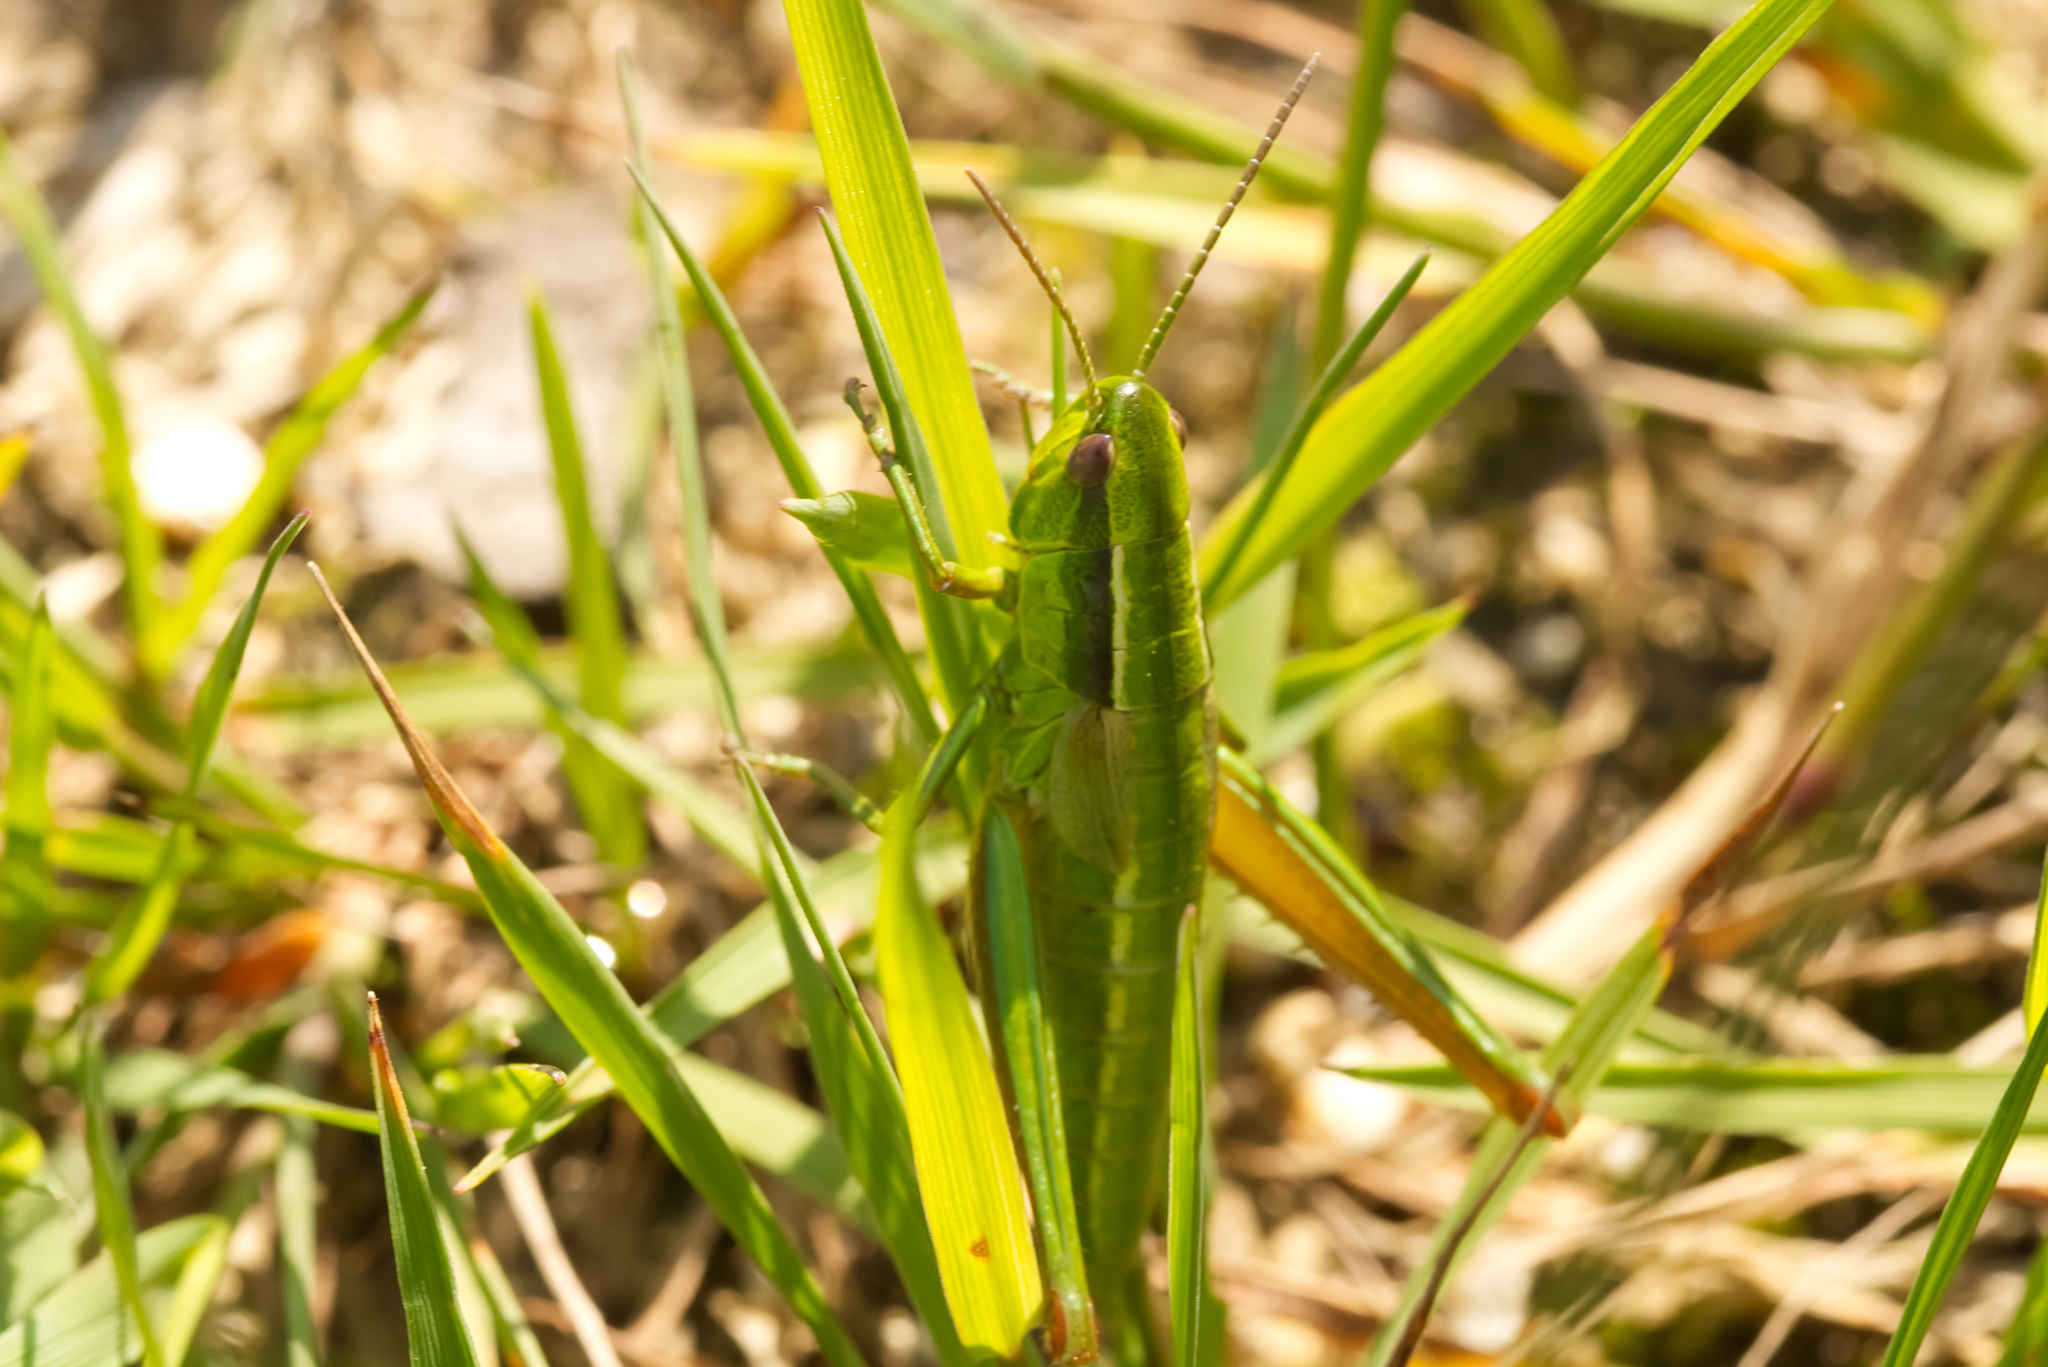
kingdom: Animalia
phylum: Arthropoda
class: Insecta
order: Orthoptera
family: Acrididae
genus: Euthystira
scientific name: Euthystira brachyptera
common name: Small gold grasshopper
